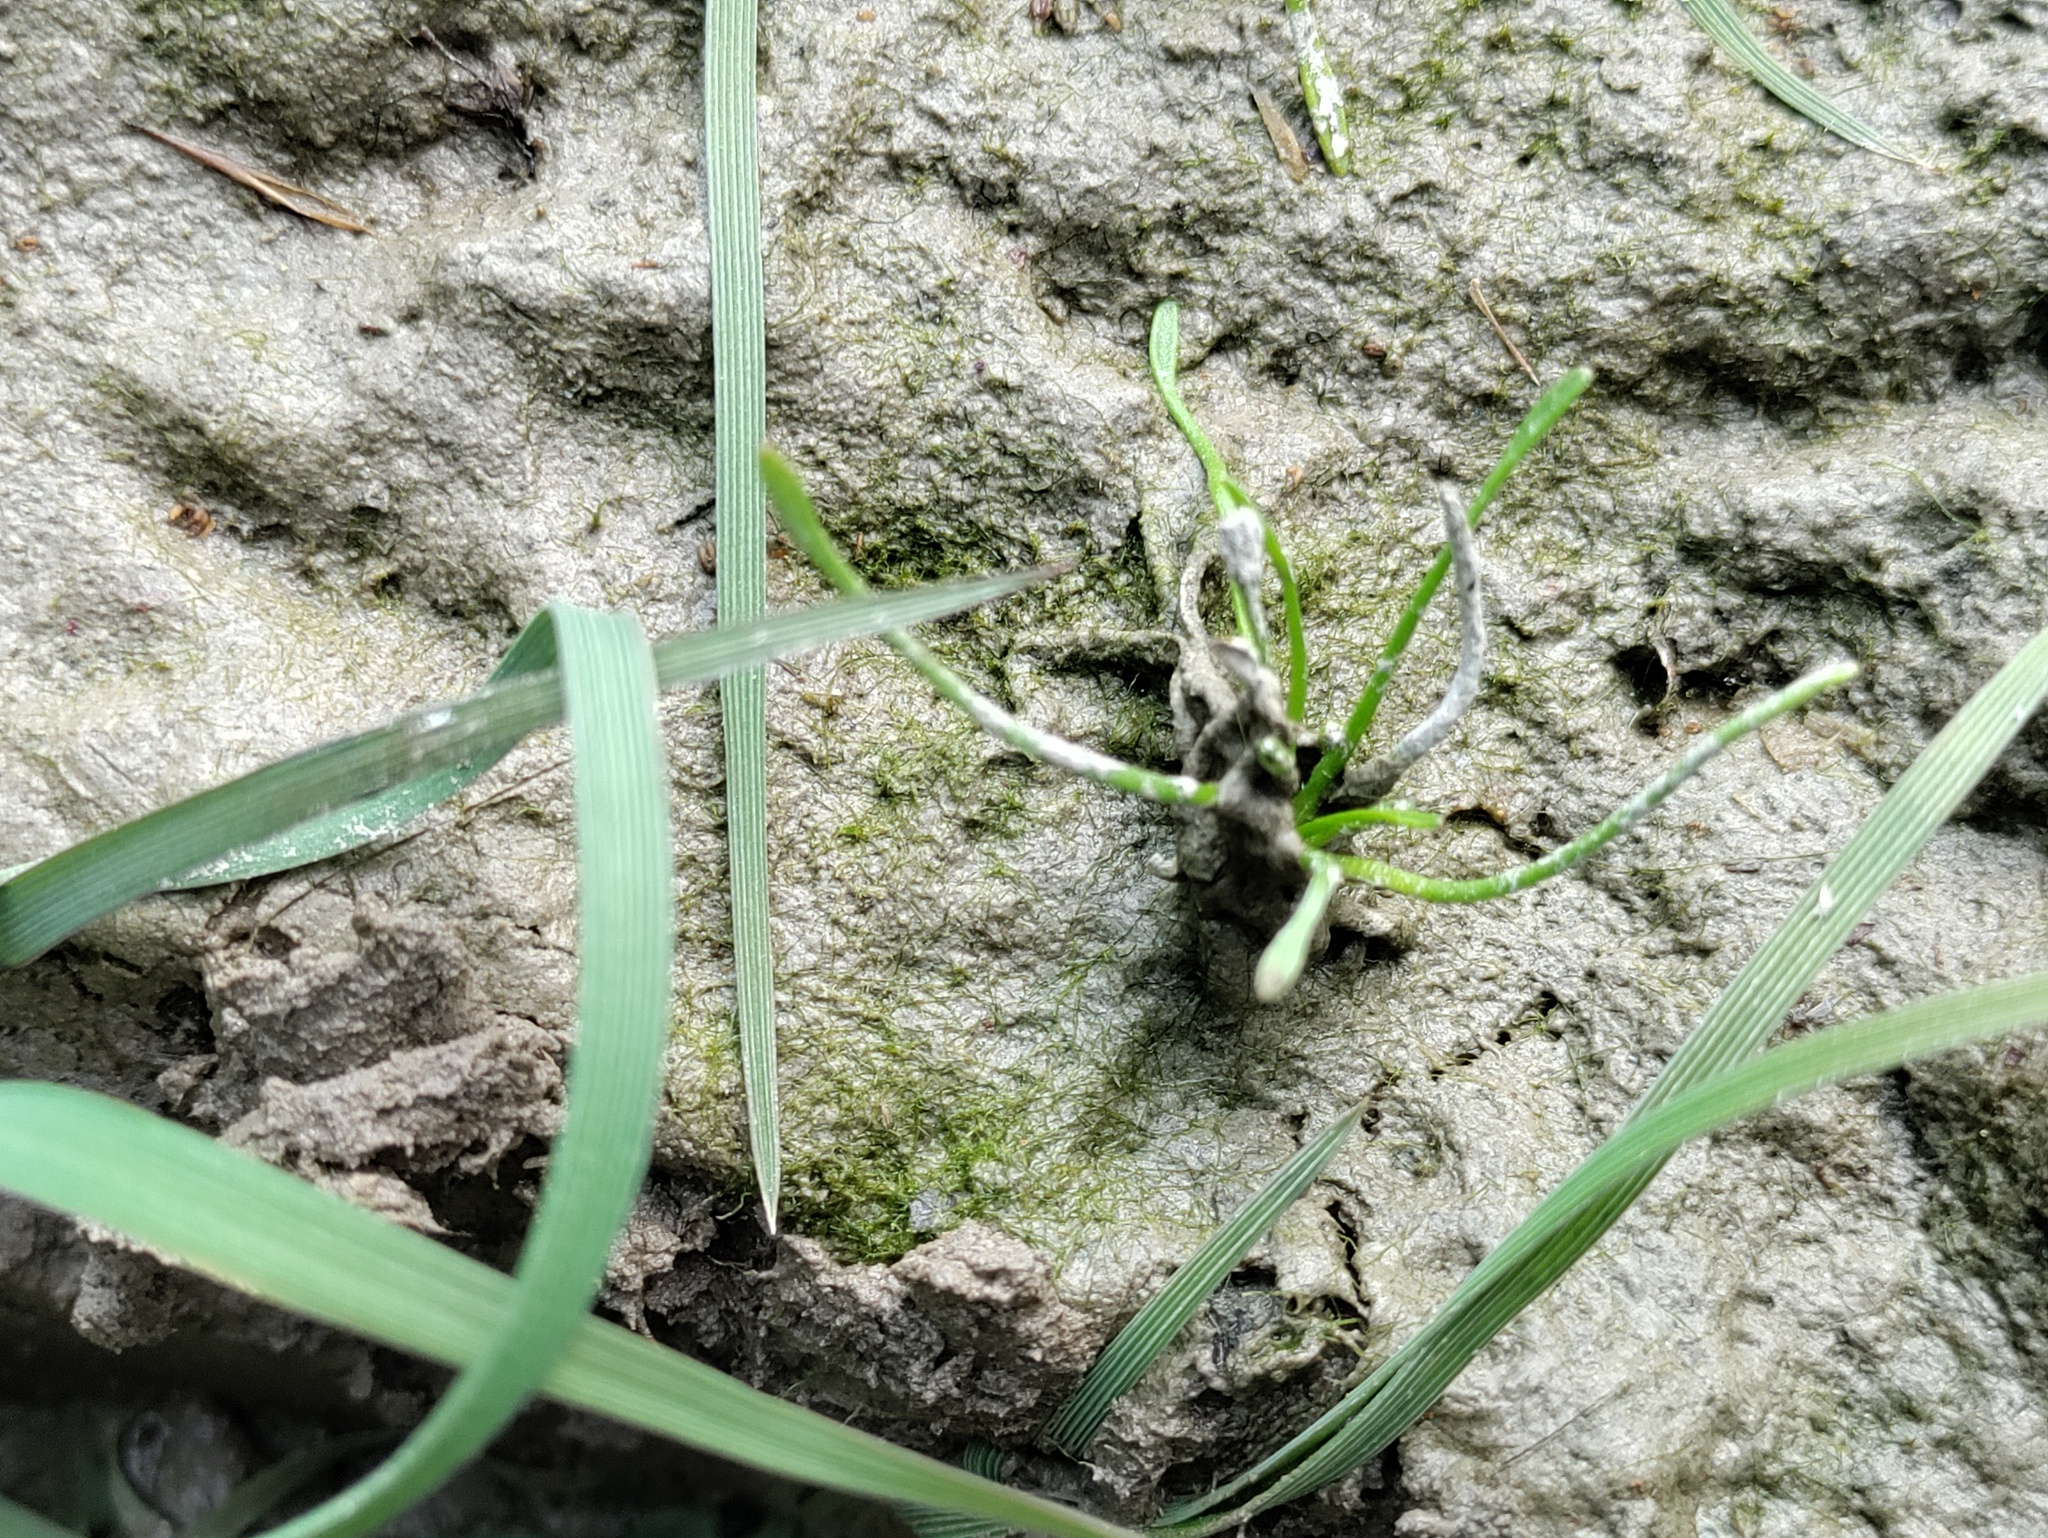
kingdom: Plantae
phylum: Tracheophyta
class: Magnoliopsida
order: Lamiales
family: Scrophulariaceae
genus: Limosella
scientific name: Limosella aquatica
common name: Mudwort
